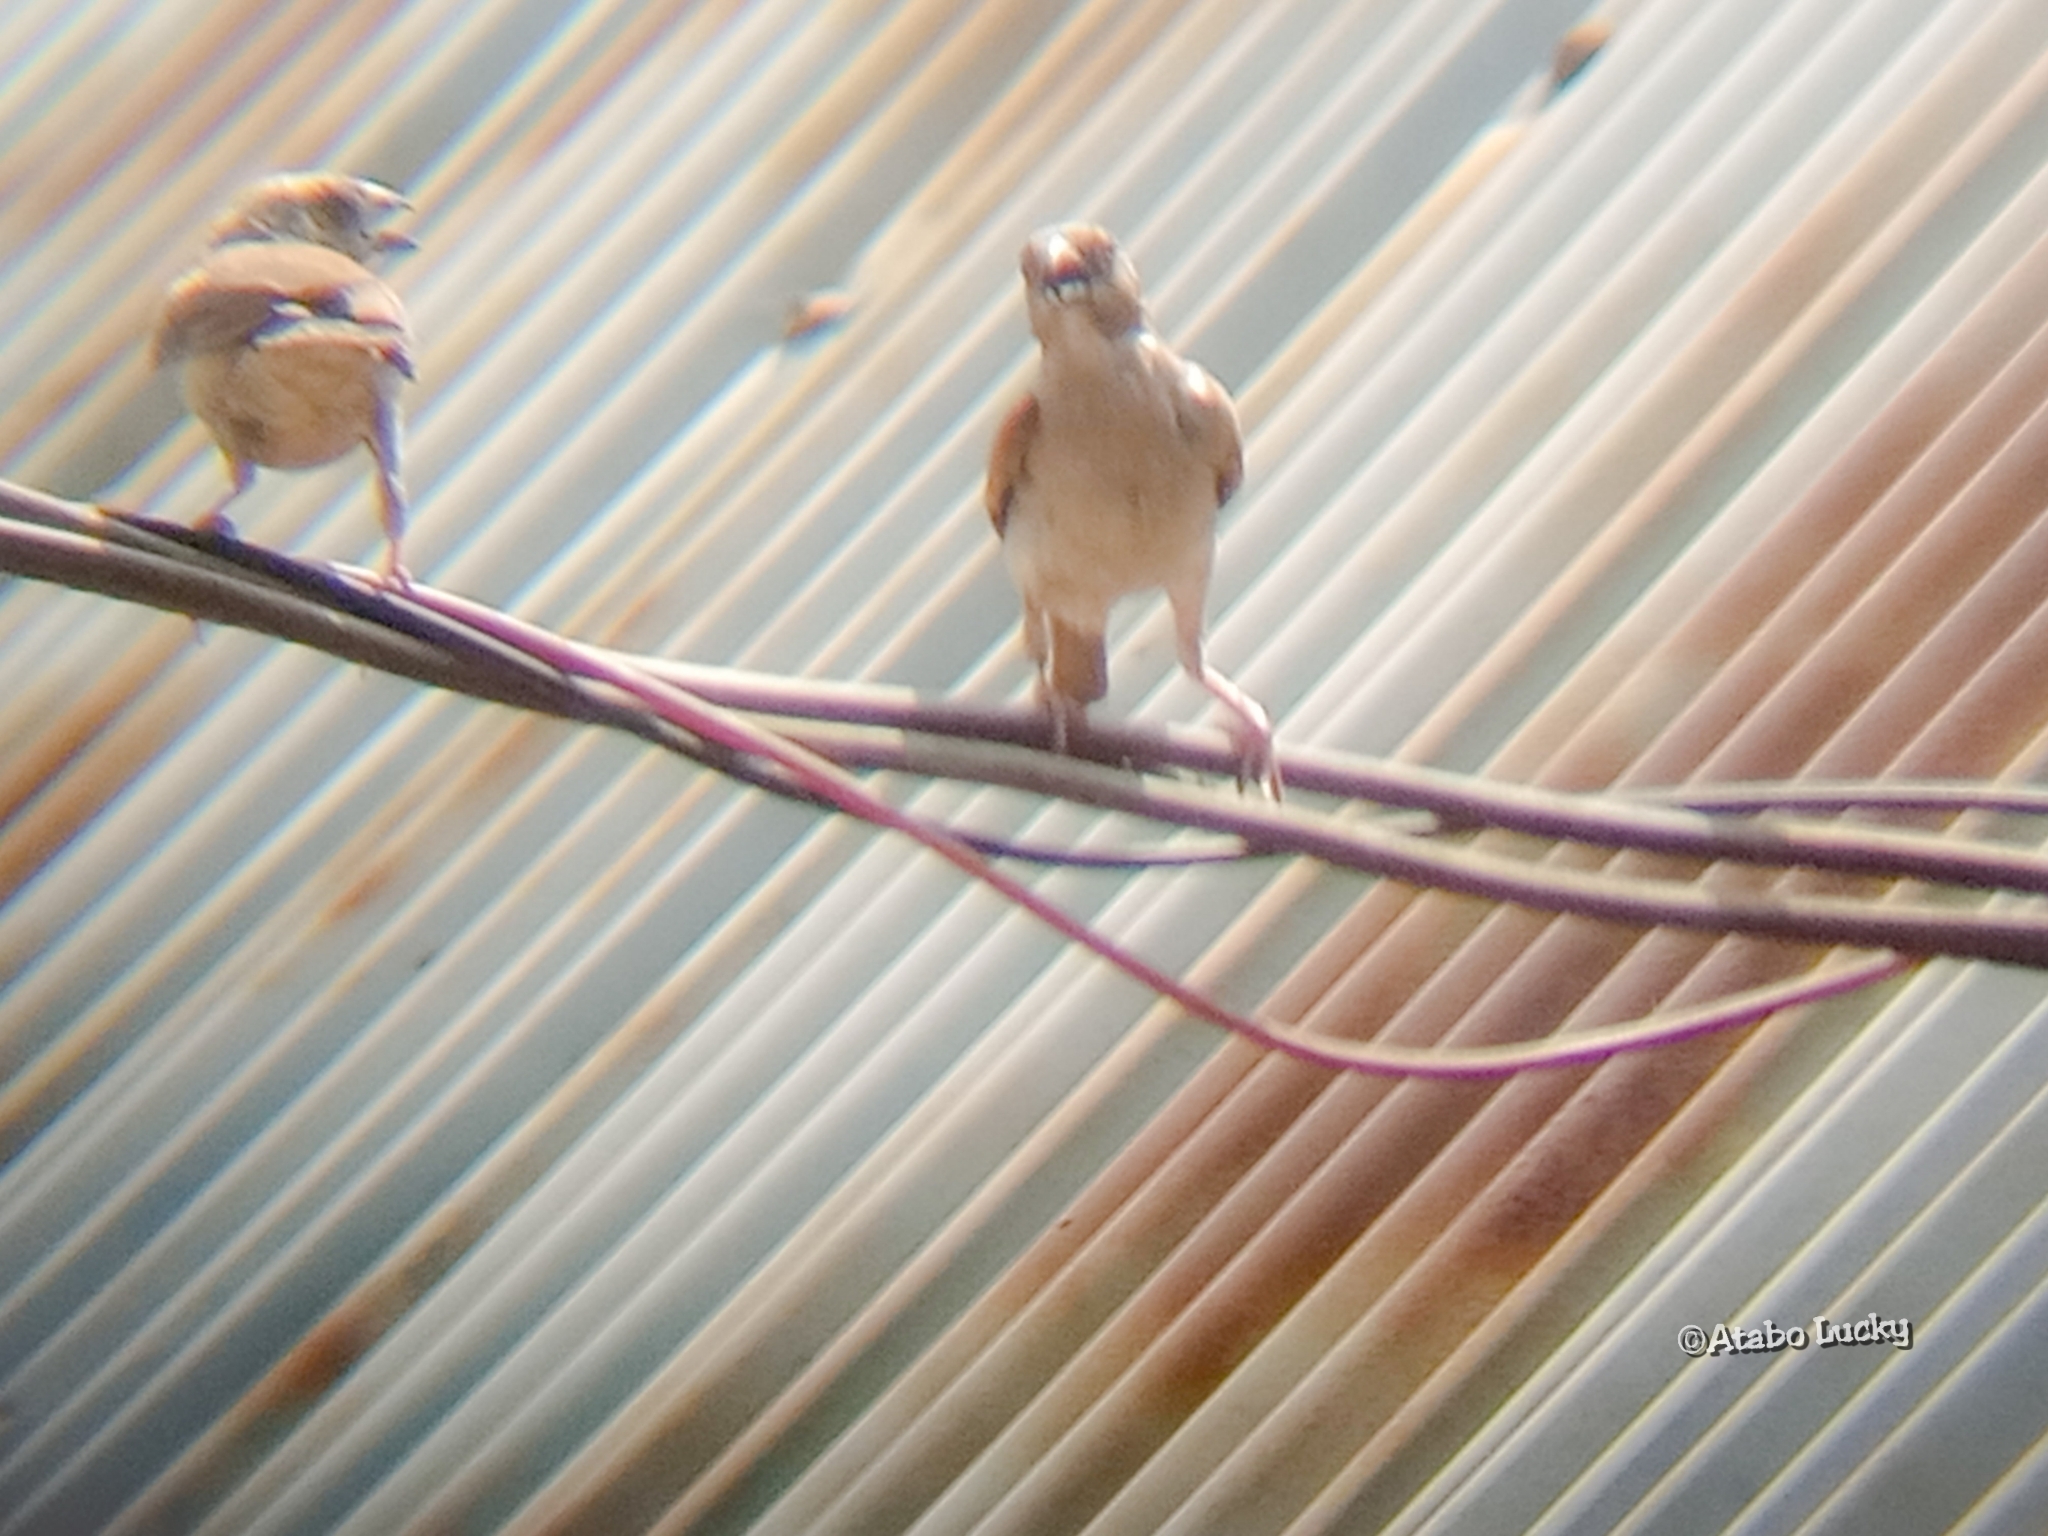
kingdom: Animalia
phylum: Chordata
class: Aves
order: Passeriformes
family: Passeridae
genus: Passer
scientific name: Passer griseus
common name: Northern grey-headed sparrow
